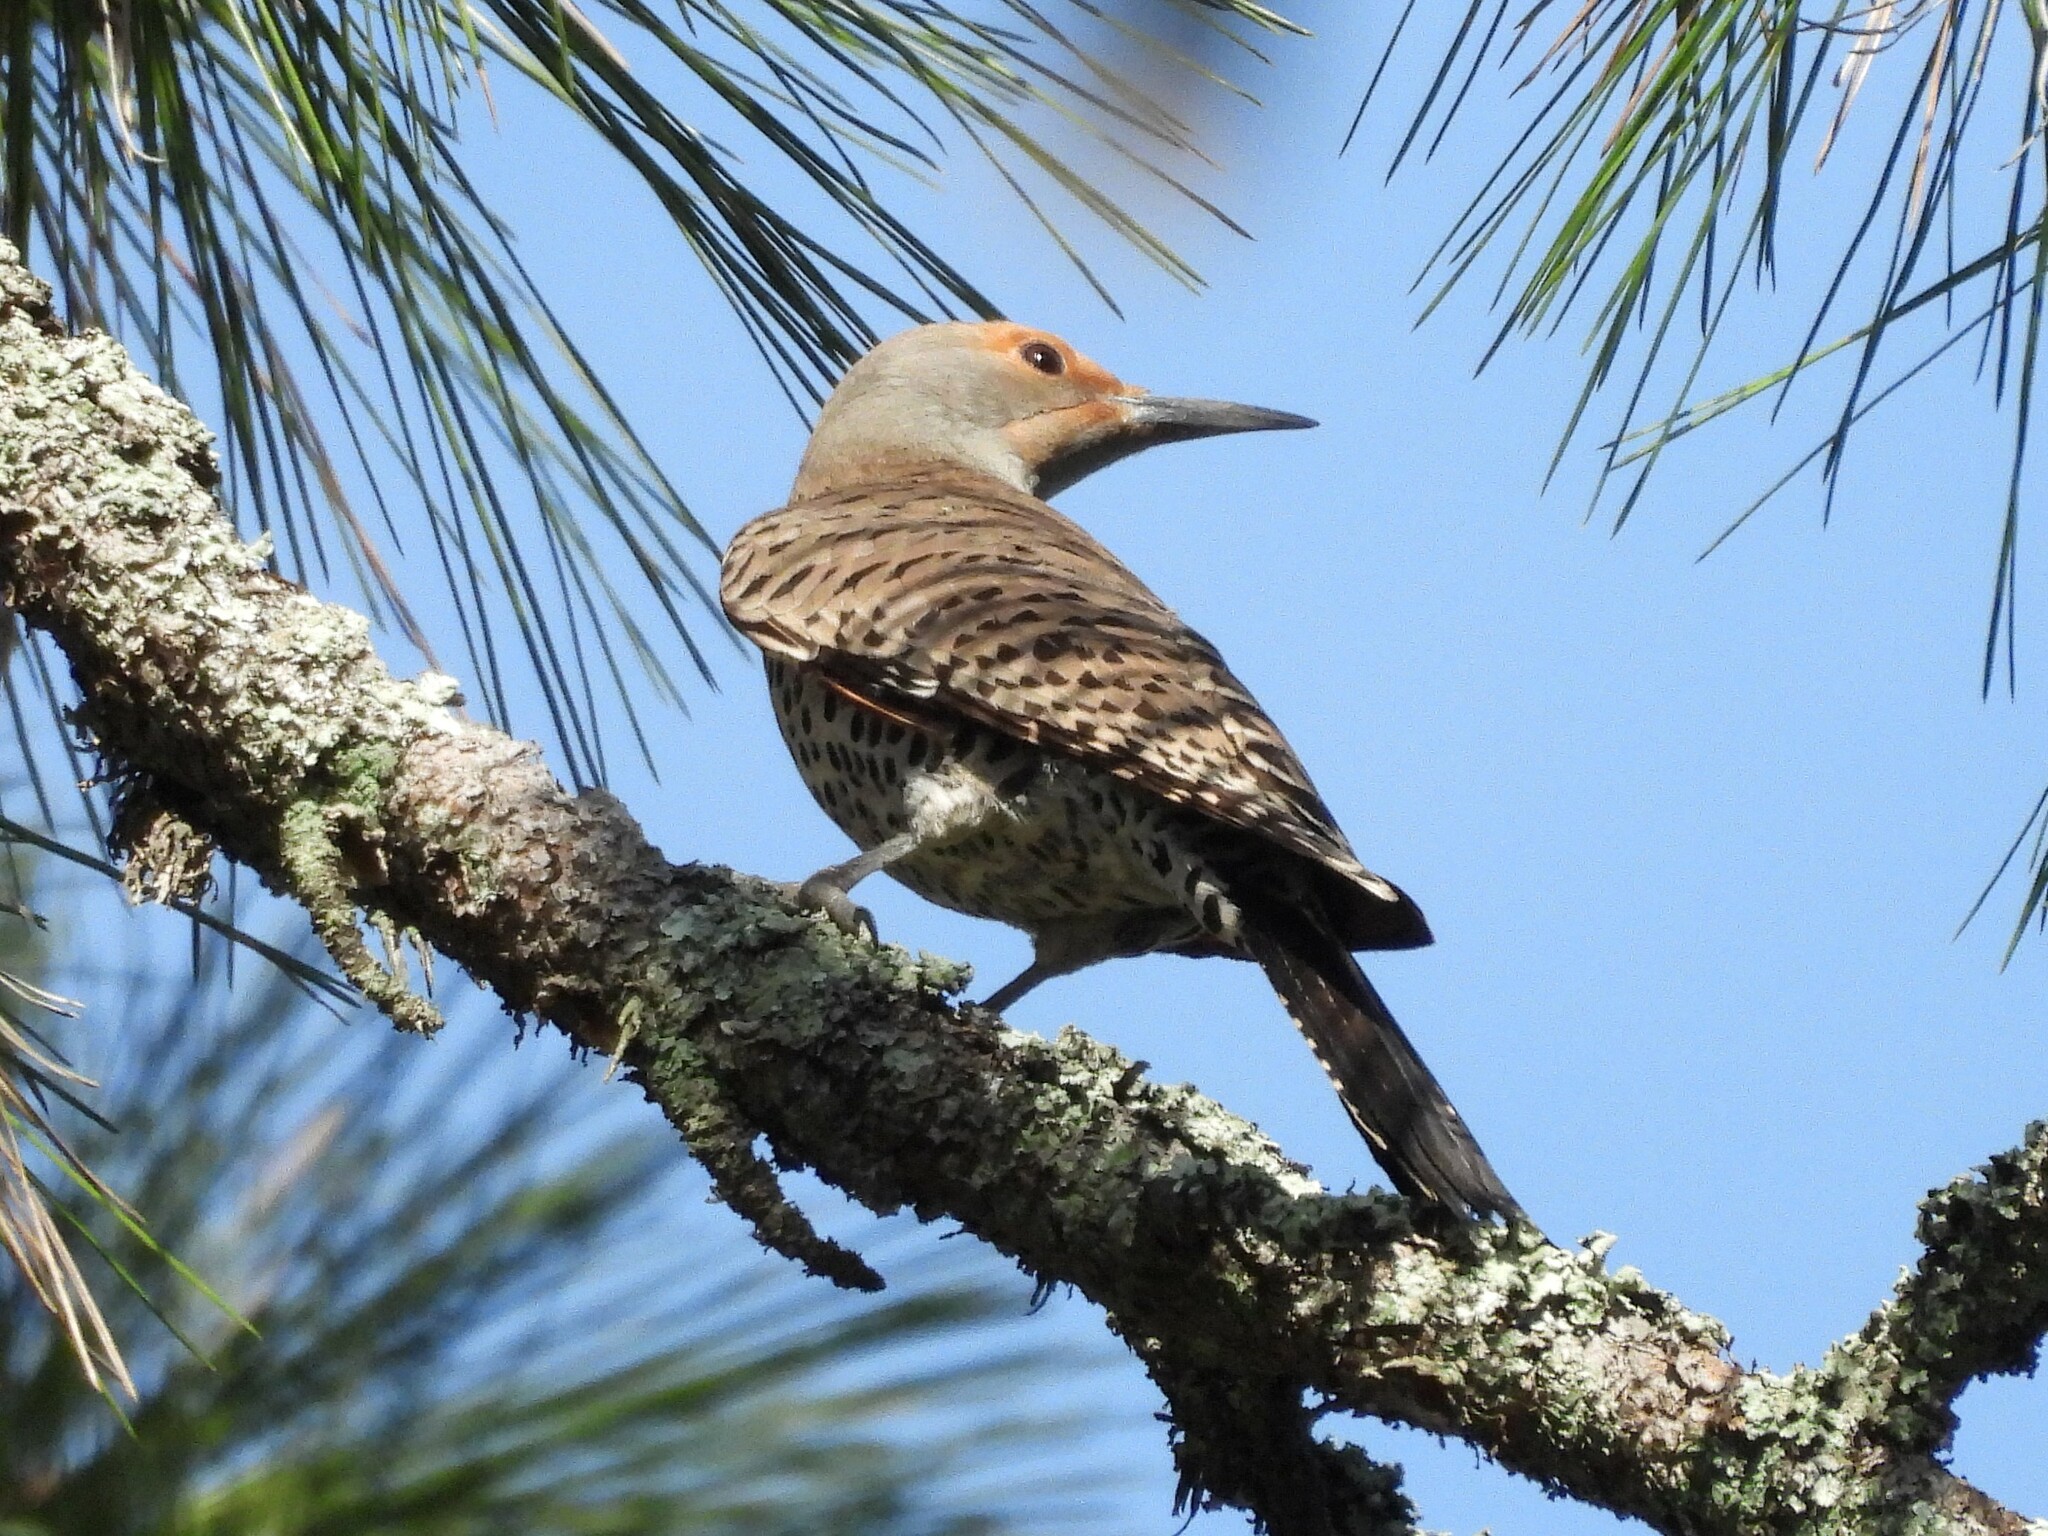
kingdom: Animalia
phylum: Chordata
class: Aves
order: Piciformes
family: Picidae
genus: Colaptes
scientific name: Colaptes auratus
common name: Northern flicker
